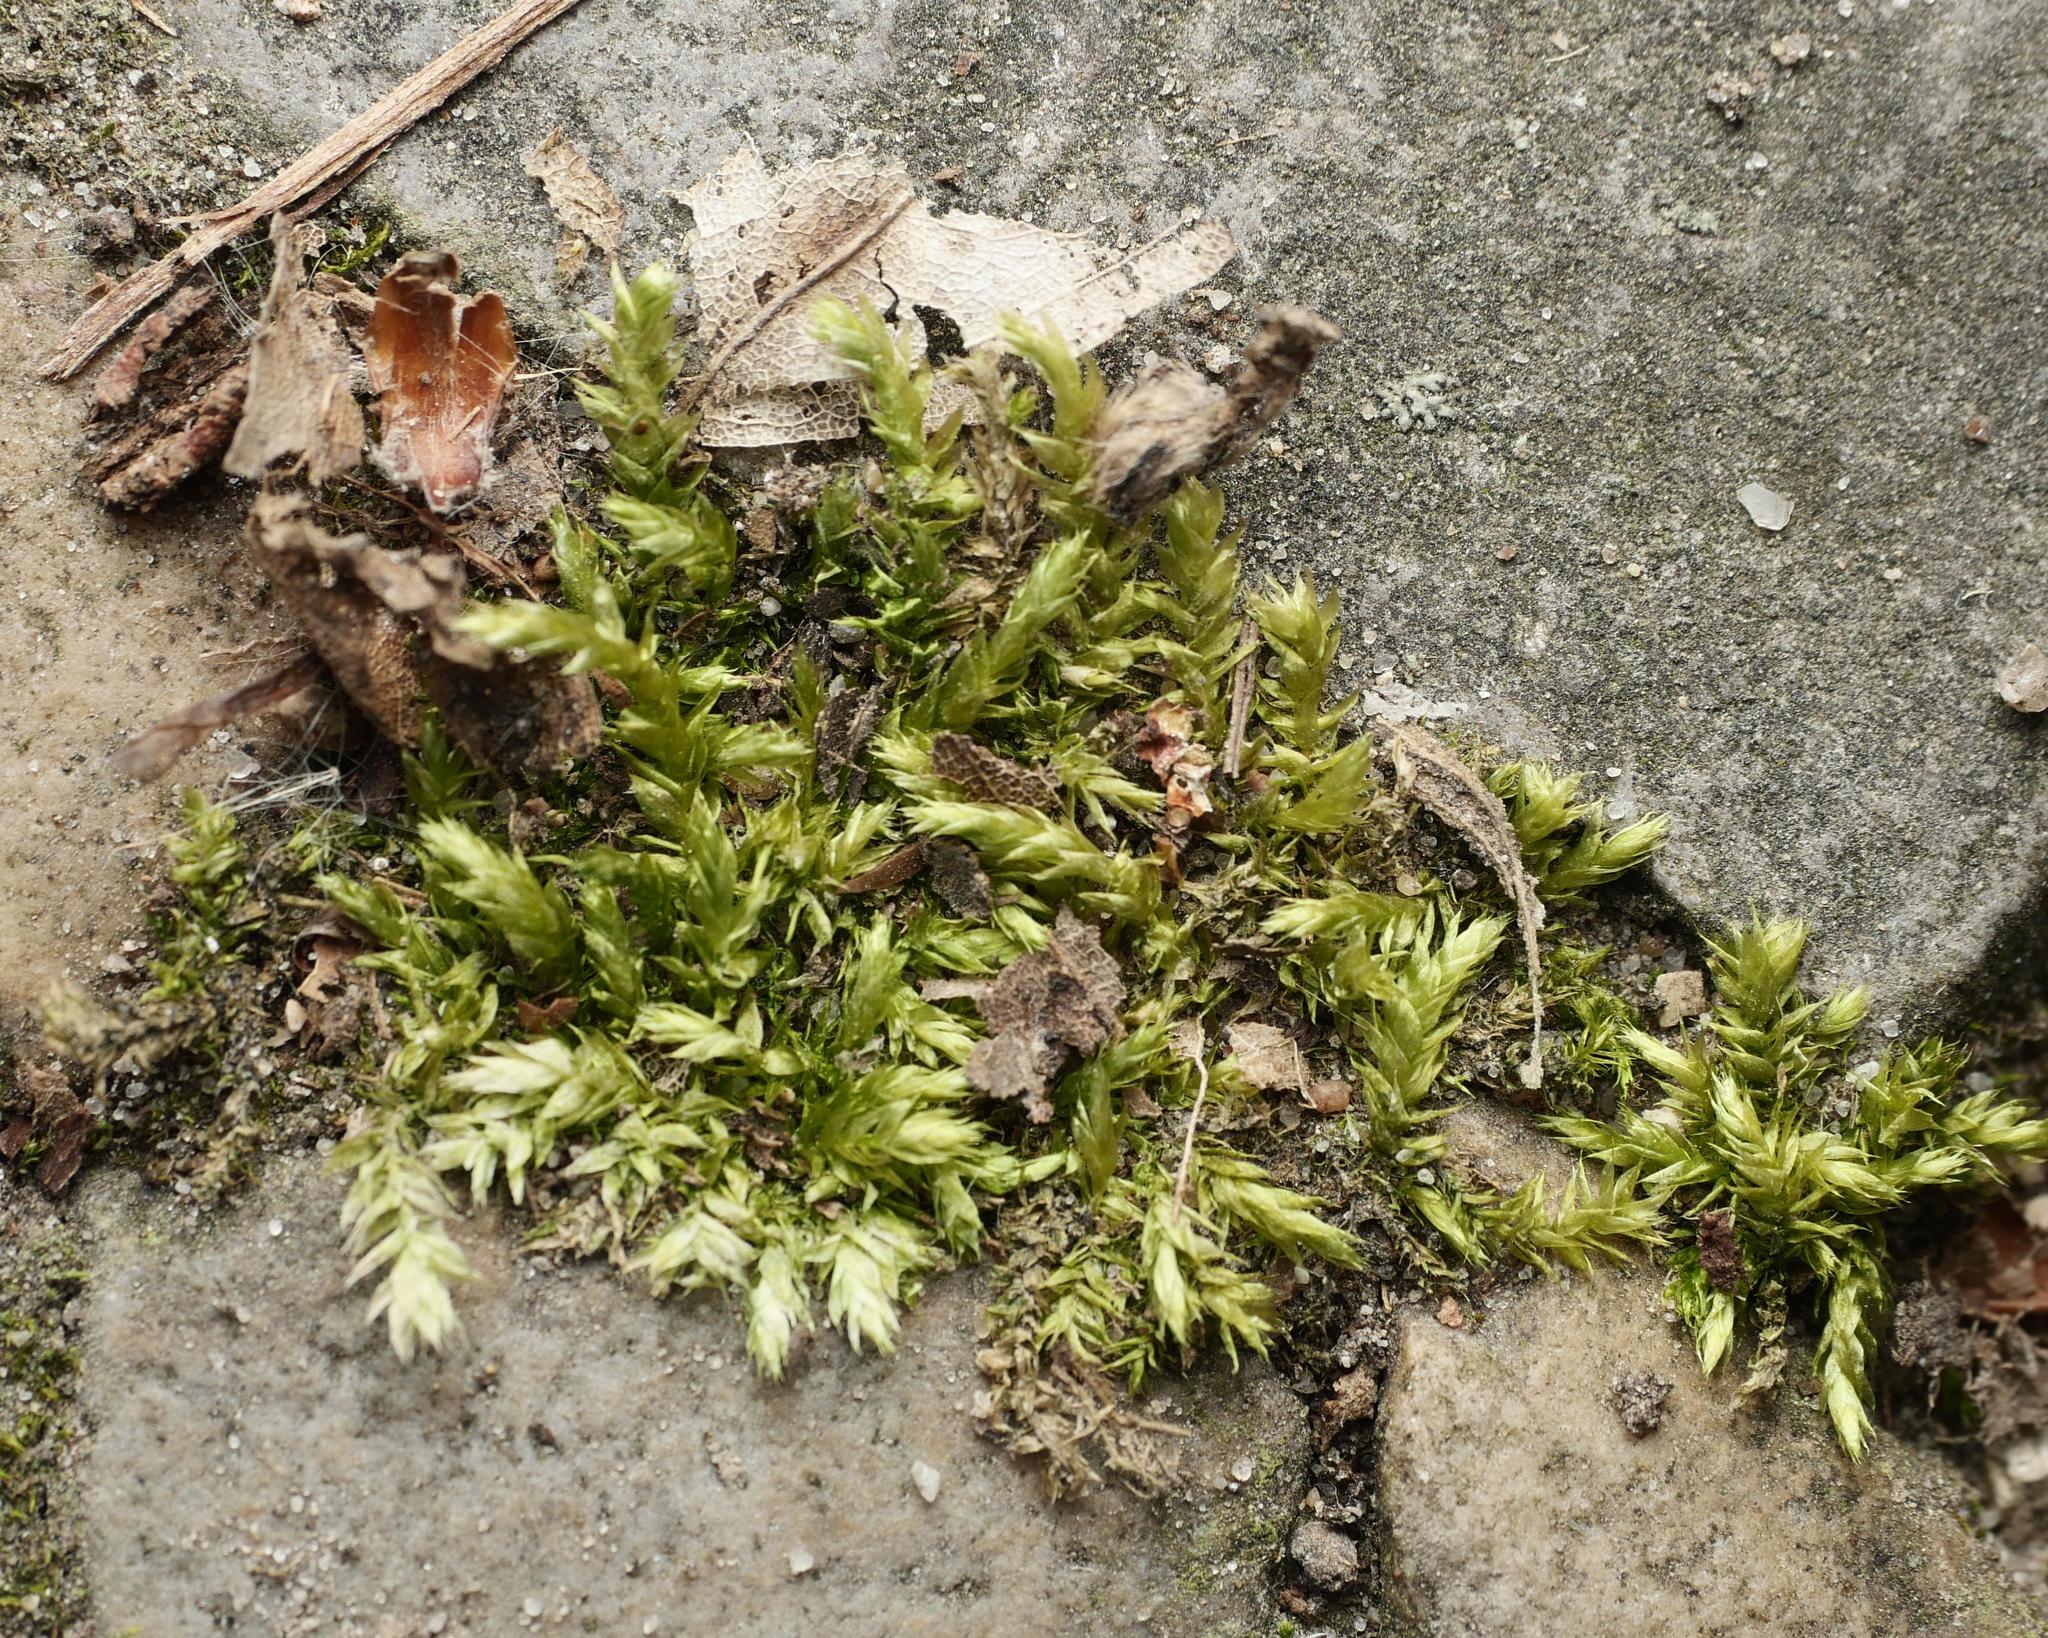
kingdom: Plantae
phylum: Bryophyta
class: Bryopsida
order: Hypnales
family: Brachytheciaceae
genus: Brachythecium
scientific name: Brachythecium rutabulum
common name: Rough-stalked feather-moss
